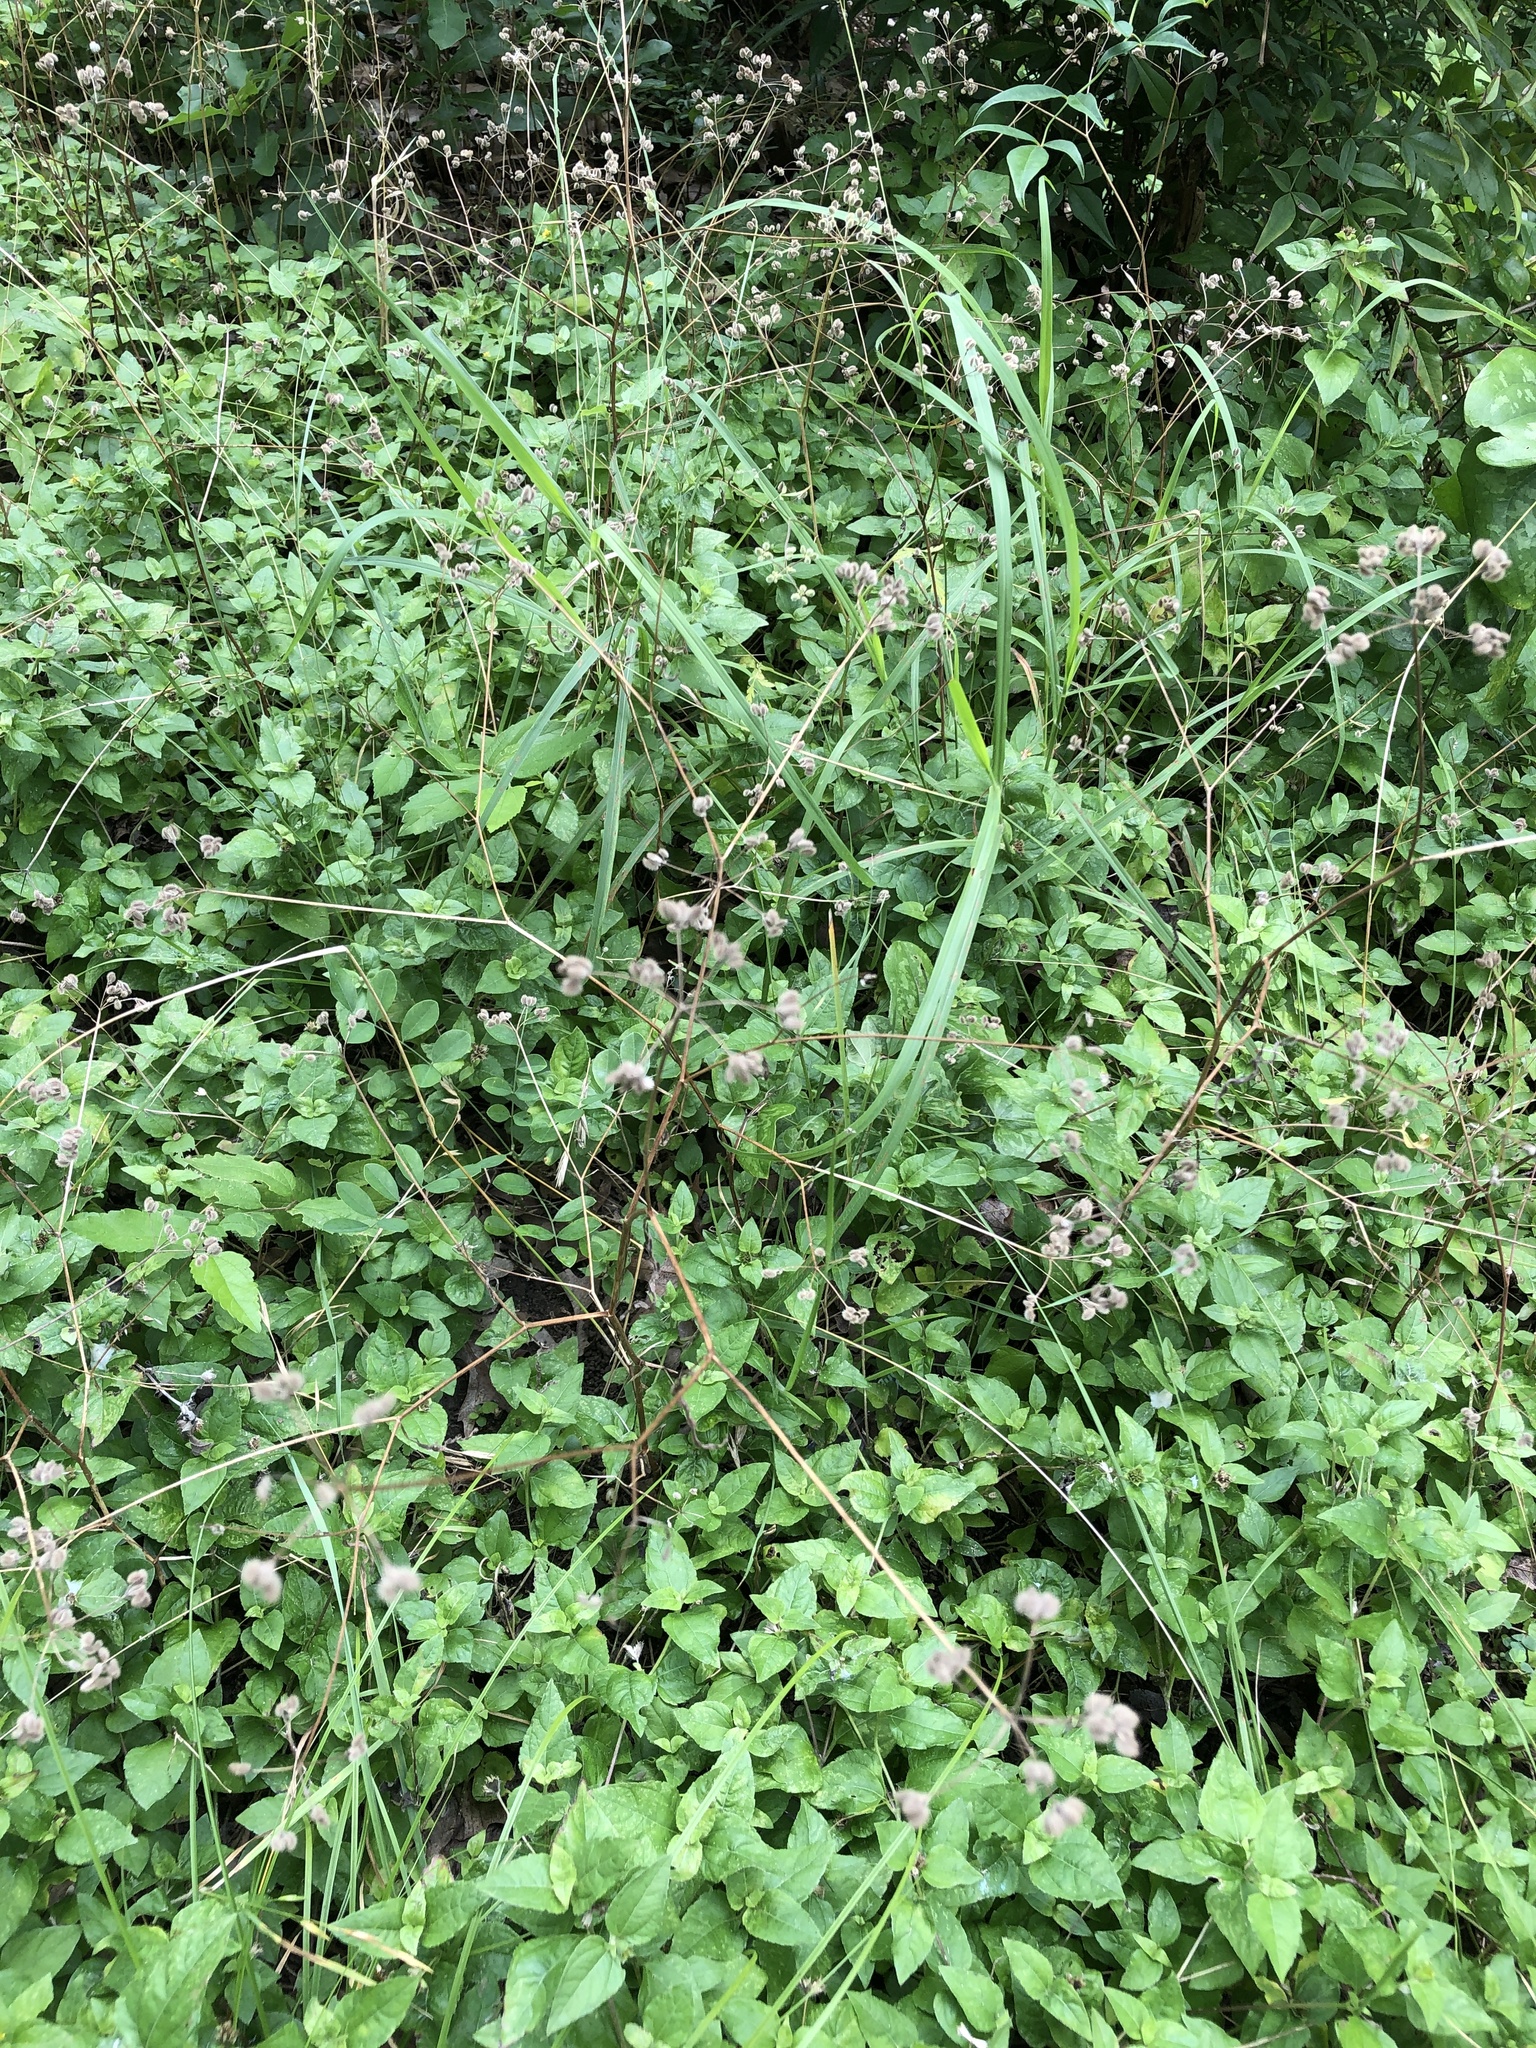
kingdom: Plantae
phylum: Tracheophyta
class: Magnoliopsida
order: Apiales
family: Apiaceae
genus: Torilis
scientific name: Torilis arvensis
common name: Spreading hedge-parsley
